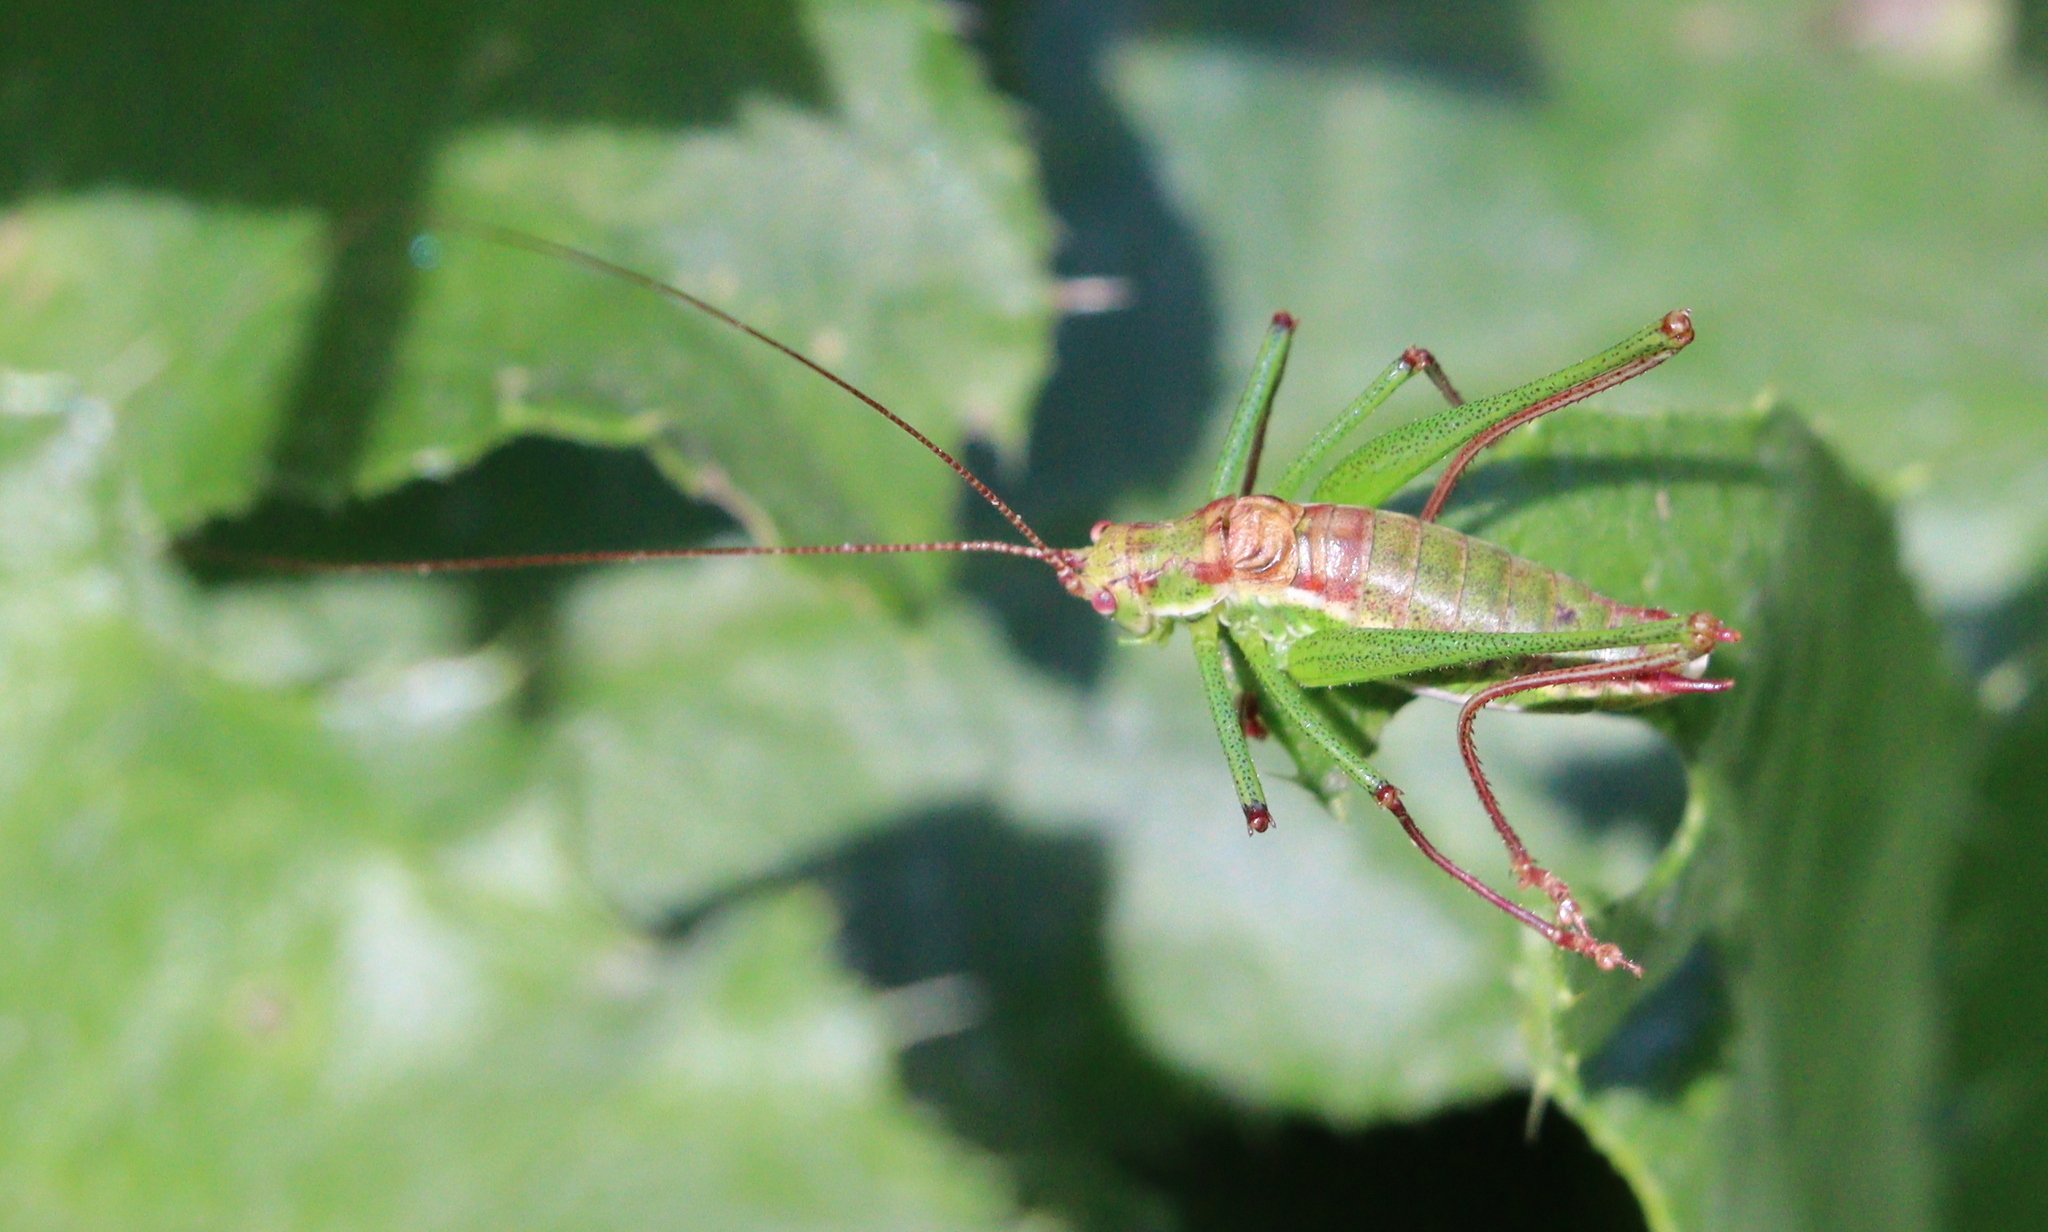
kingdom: Animalia
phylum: Arthropoda
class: Insecta
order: Orthoptera
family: Tettigoniidae
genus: Leptophyes
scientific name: Leptophyes albovittata
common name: Striped bush-cricket
